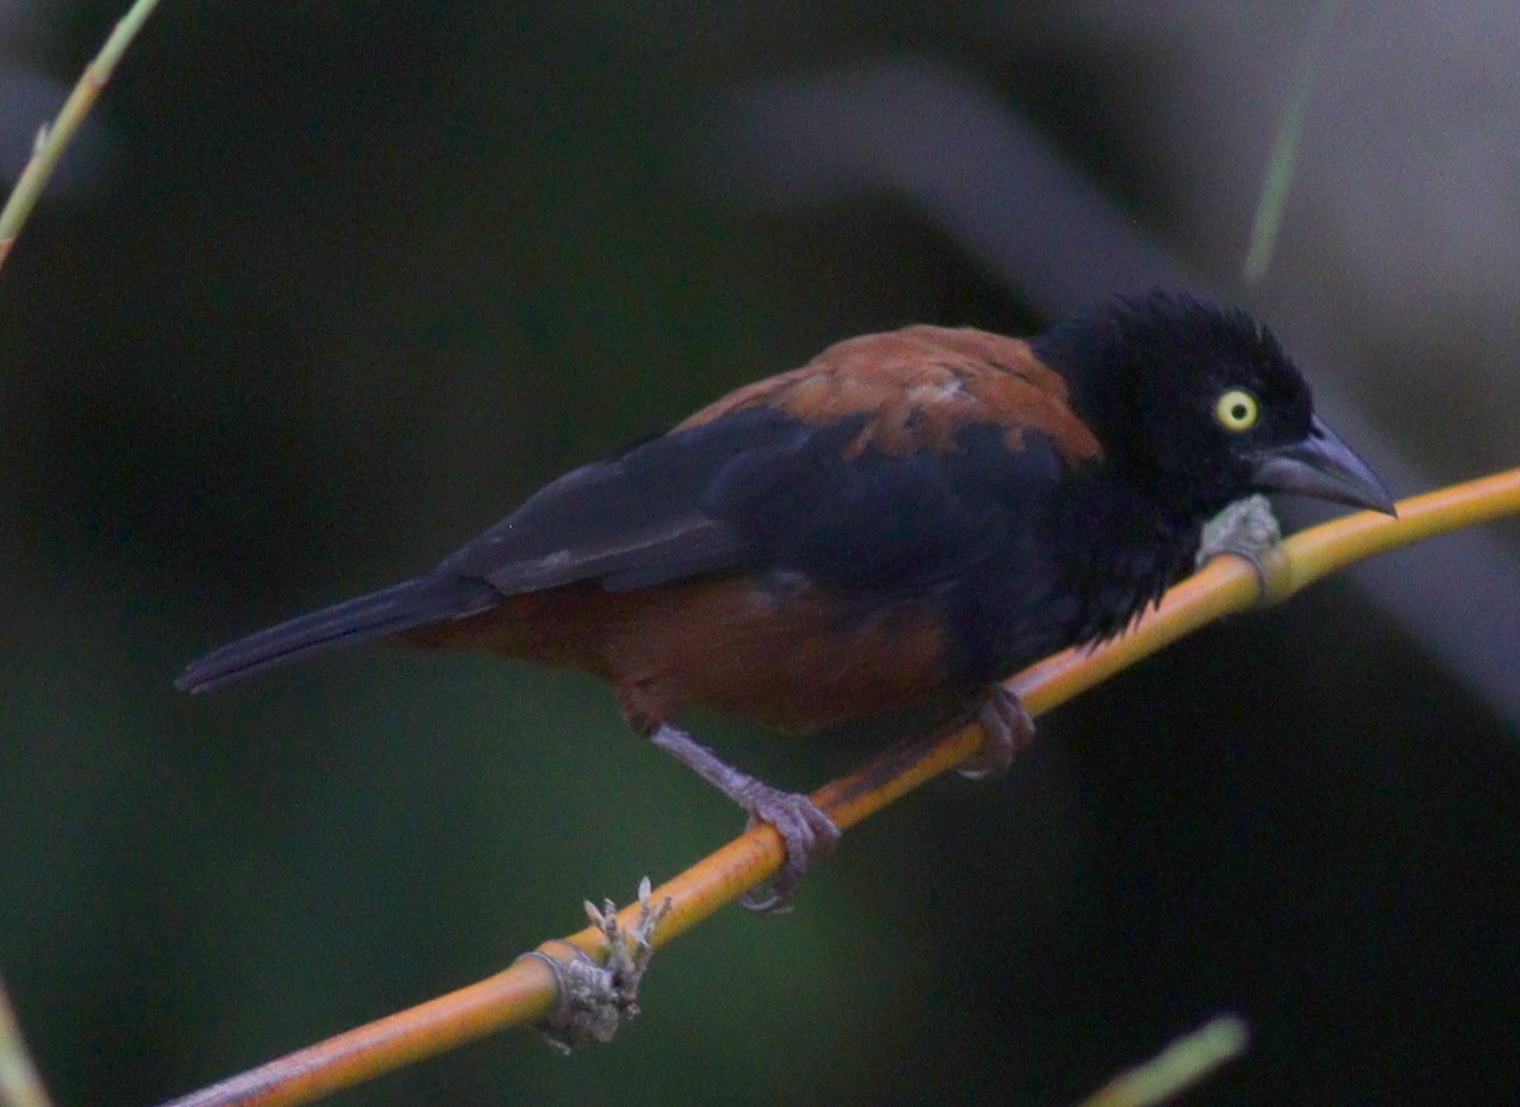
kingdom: Animalia
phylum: Chordata
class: Aves
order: Passeriformes
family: Ploceidae
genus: Ploceus
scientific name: Ploceus castaneofuscus
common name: Chestnut-and-black weaver
